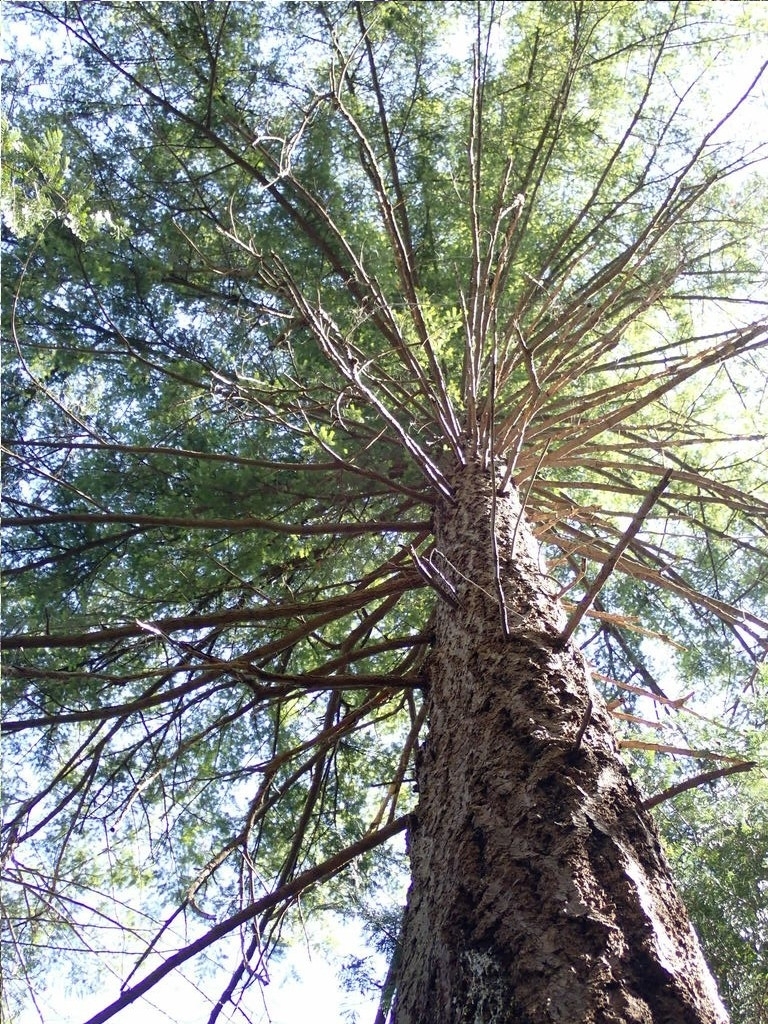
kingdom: Plantae
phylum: Tracheophyta
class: Pinopsida
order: Pinales
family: Pinaceae
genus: Pseudotsuga
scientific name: Pseudotsuga menziesii
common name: Douglas fir
